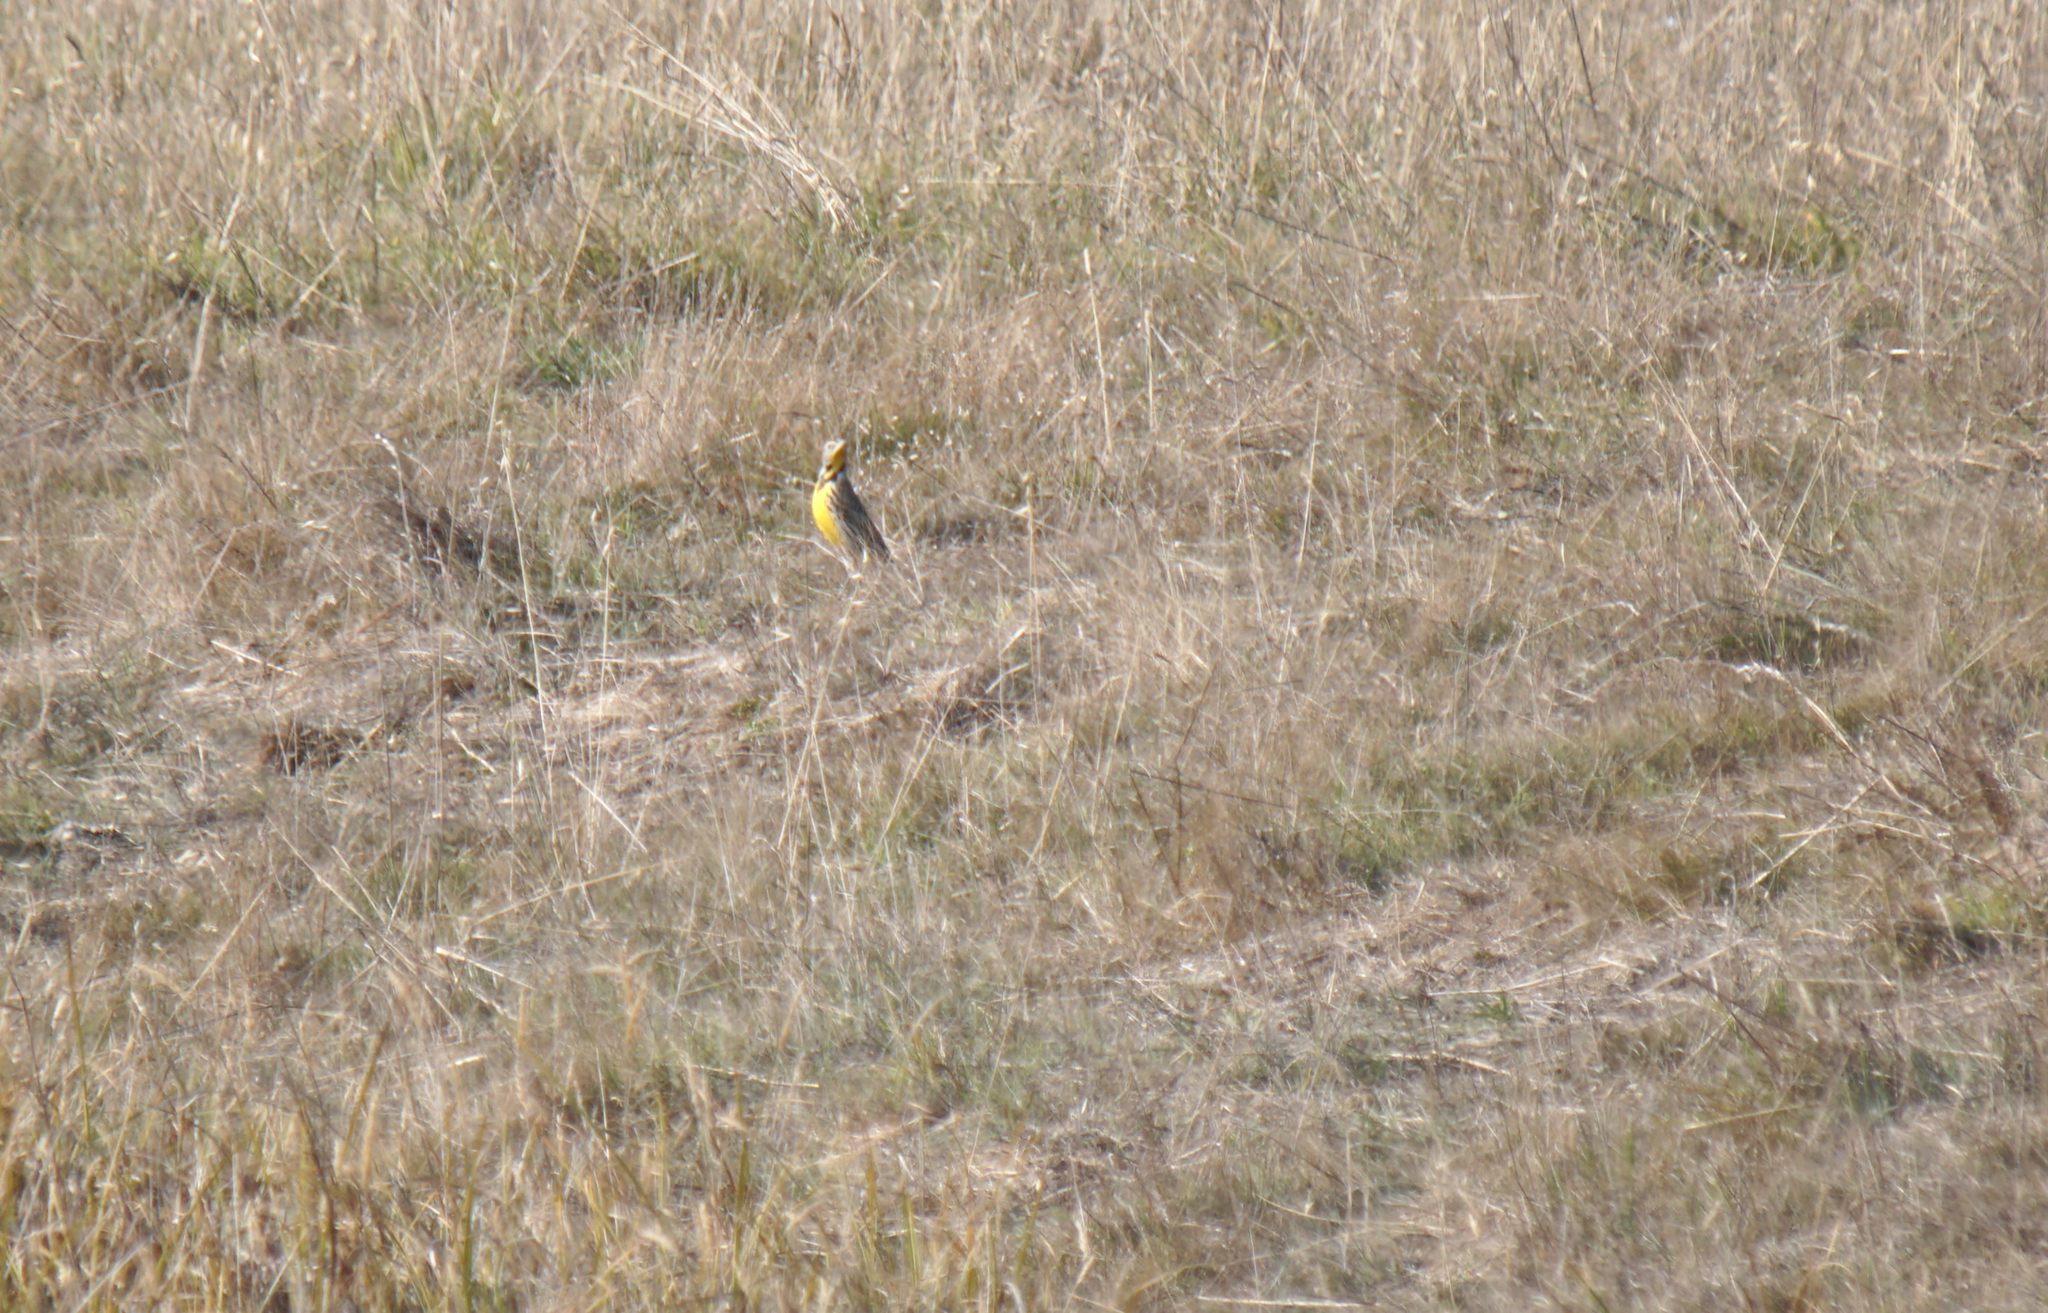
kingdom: Animalia
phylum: Chordata
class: Aves
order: Passeriformes
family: Icteridae
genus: Sturnella
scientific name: Sturnella neglecta
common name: Western meadowlark
